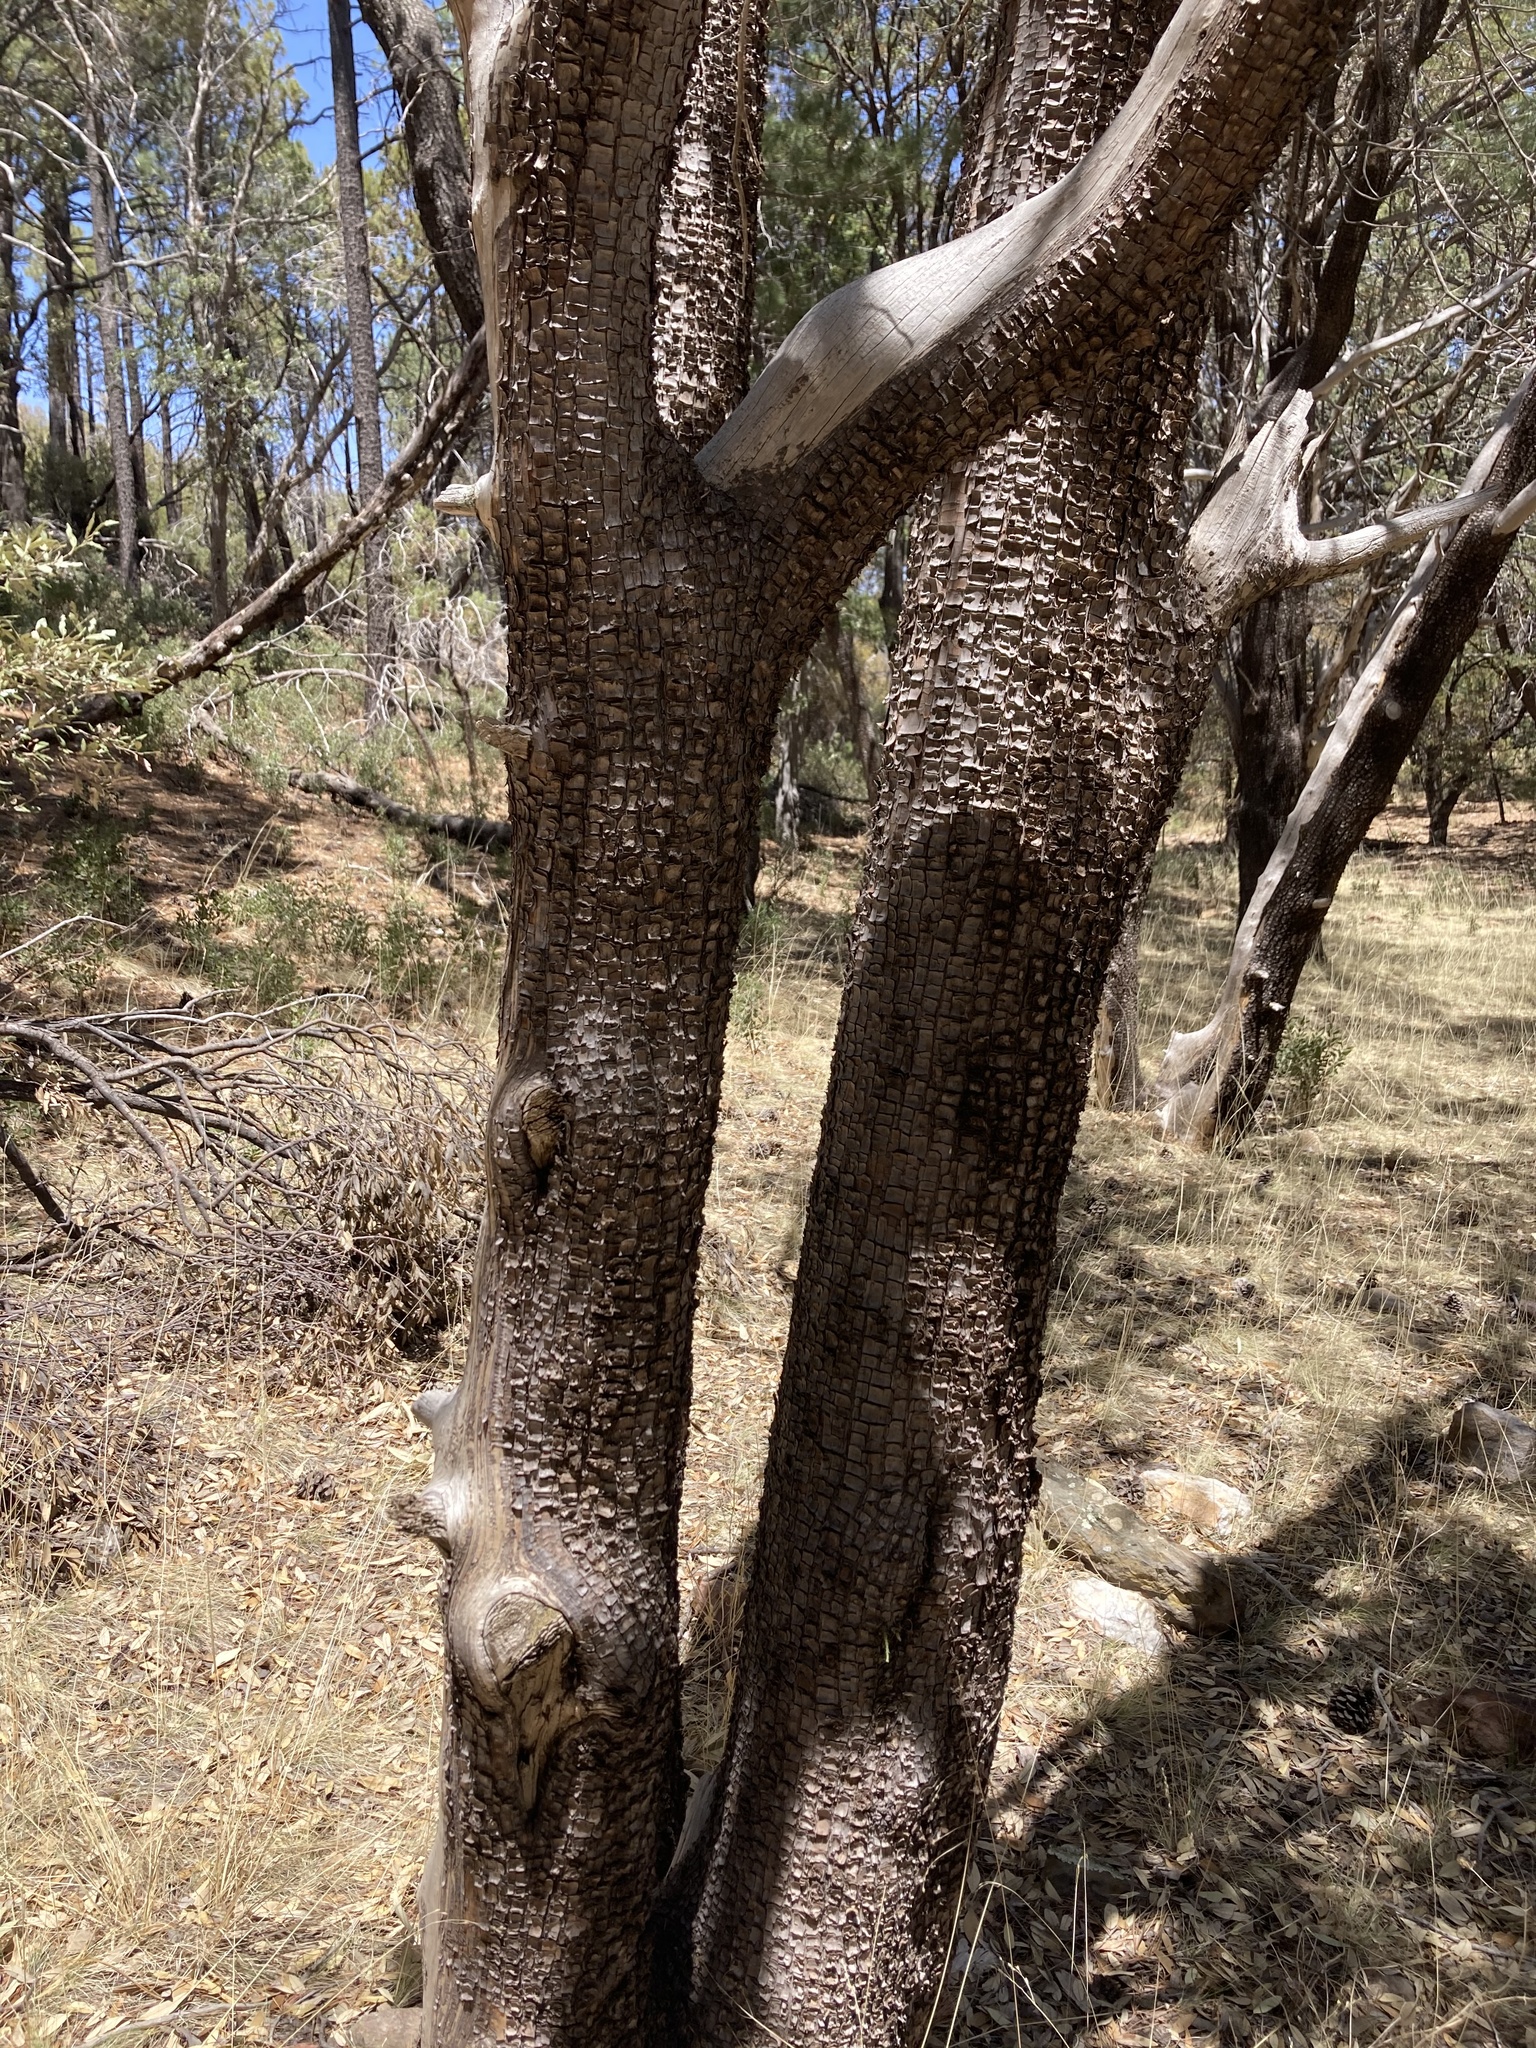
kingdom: Plantae
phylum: Tracheophyta
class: Pinopsida
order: Pinales
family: Cupressaceae
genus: Juniperus
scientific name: Juniperus deppeana
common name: Alligator juniper
